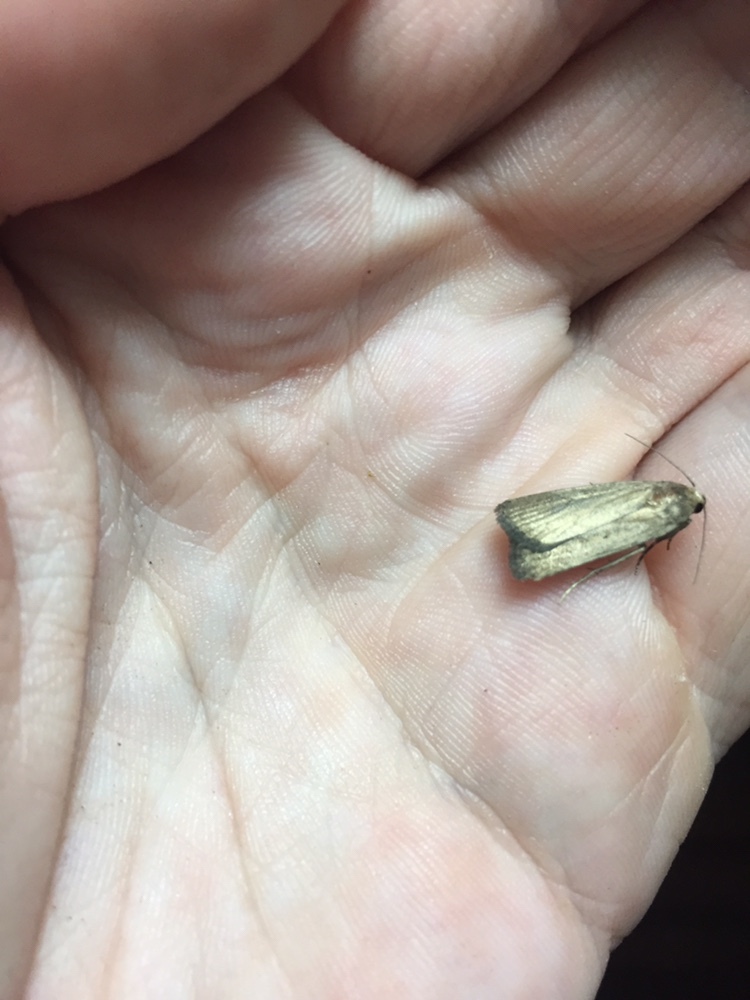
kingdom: Animalia
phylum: Arthropoda
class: Insecta
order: Lepidoptera
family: Noctuidae
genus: Athetis
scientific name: Athetis tenuis
